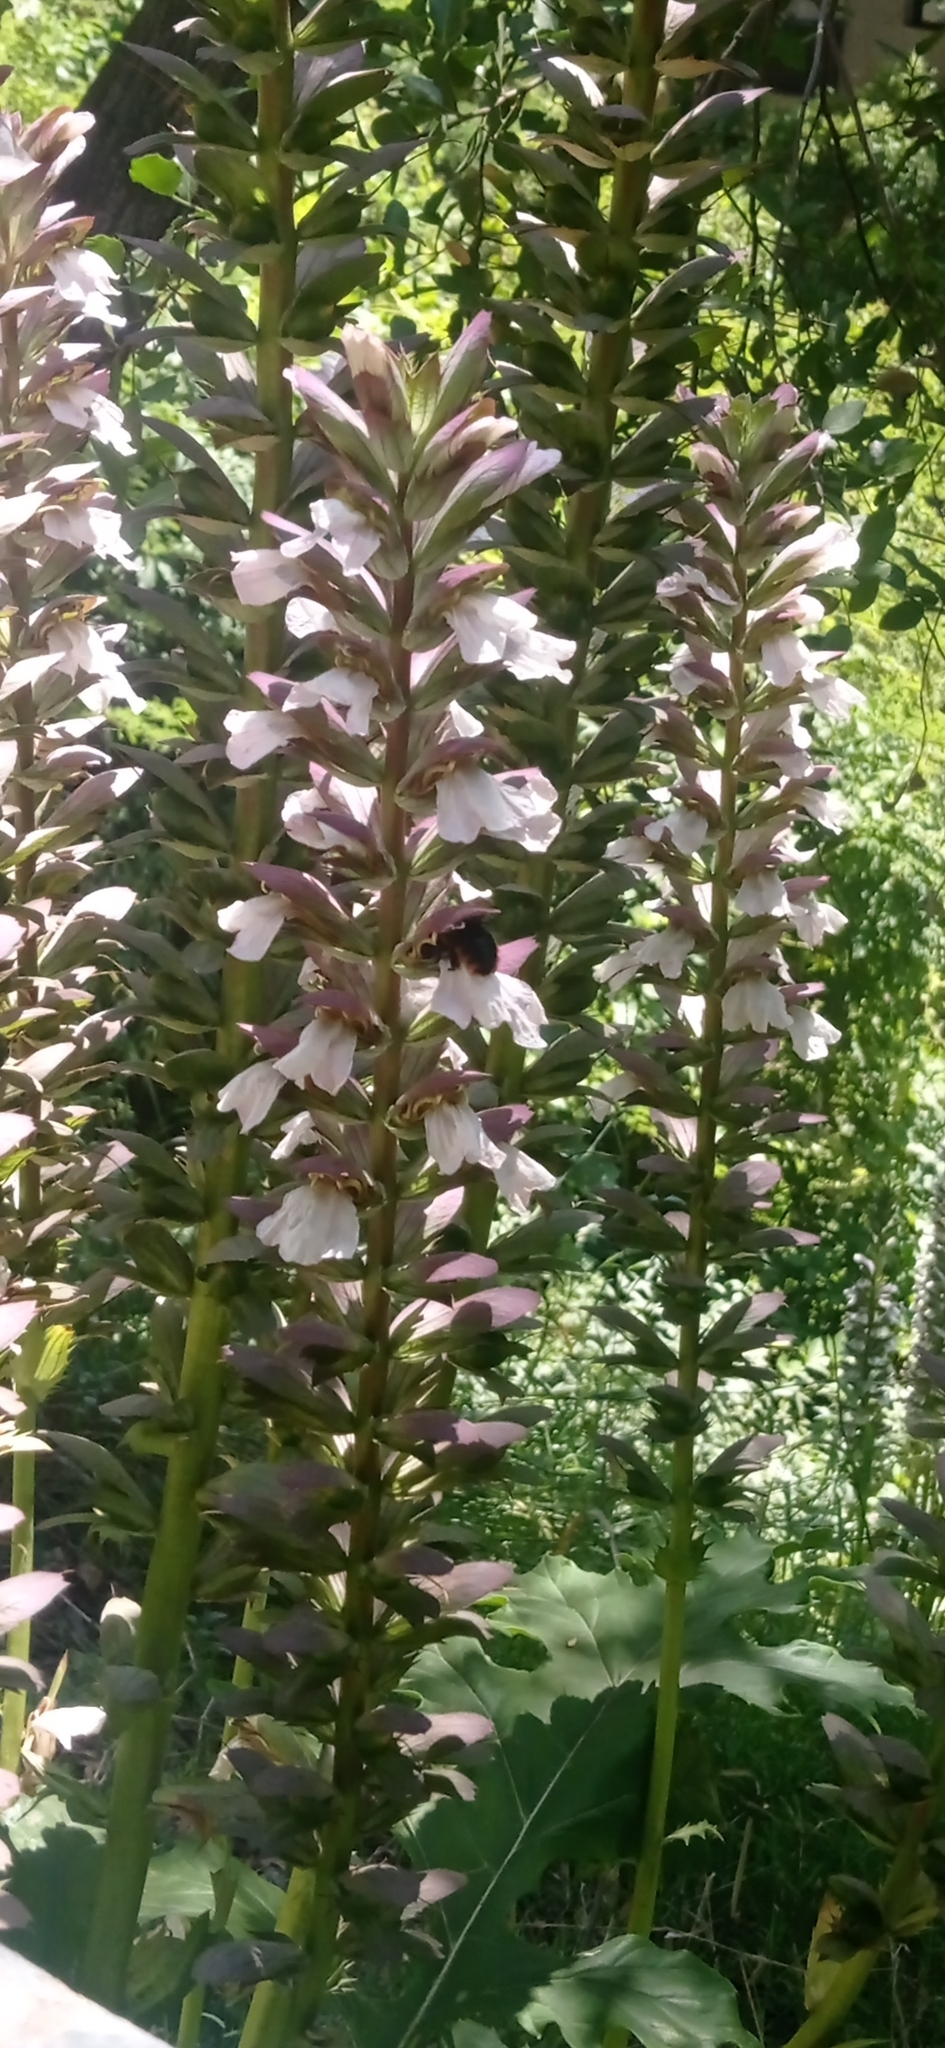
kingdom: Animalia
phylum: Arthropoda
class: Insecta
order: Hymenoptera
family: Apidae
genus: Xylocopa
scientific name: Xylocopa augusti
